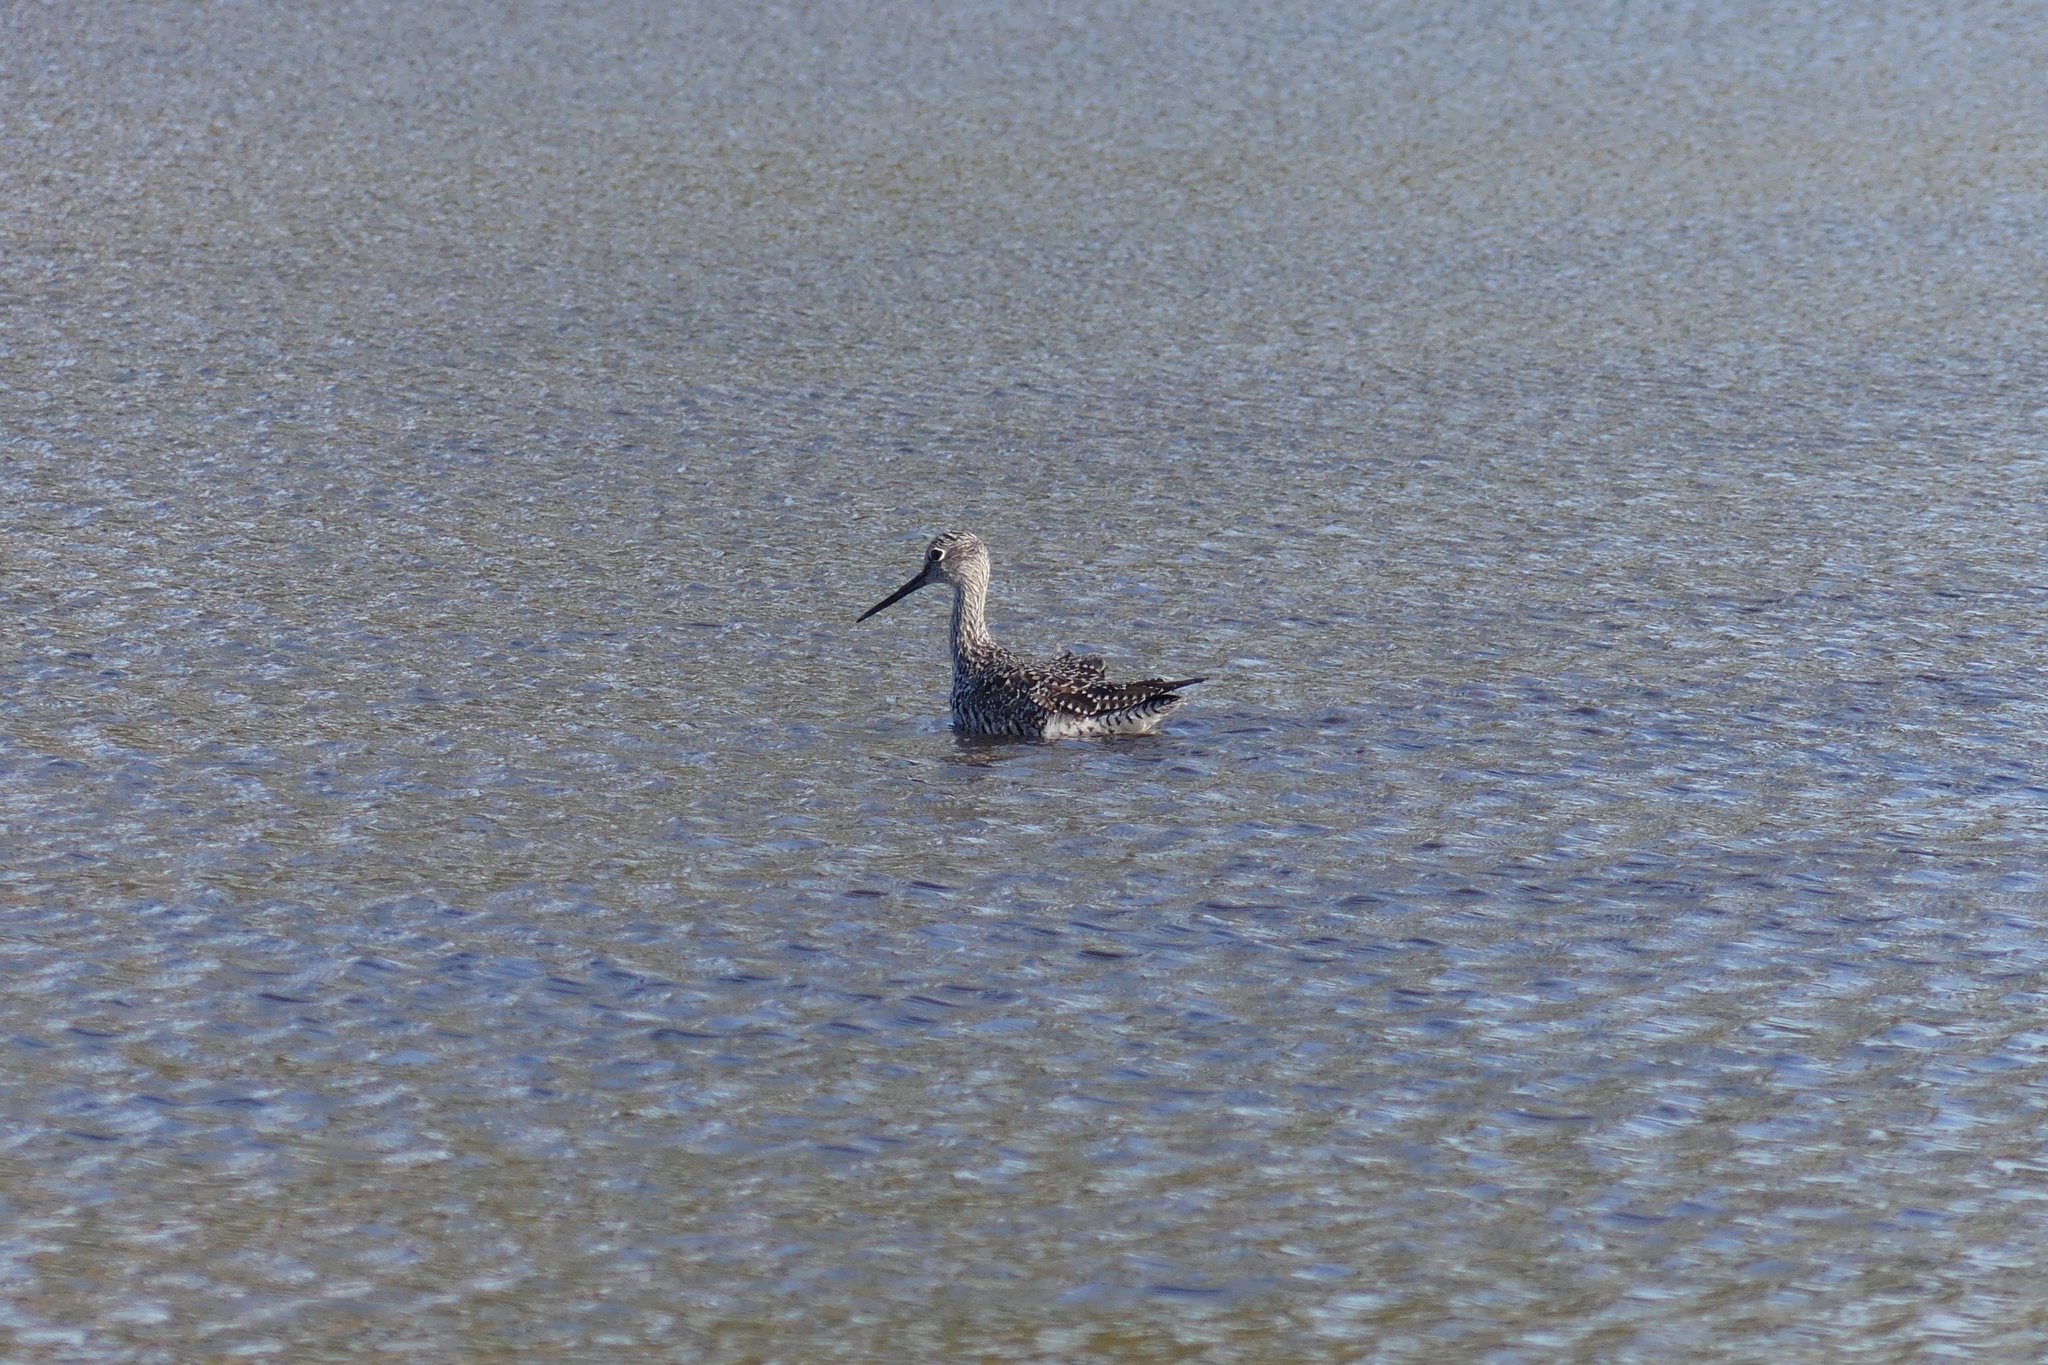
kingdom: Animalia
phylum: Chordata
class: Aves
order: Charadriiformes
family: Scolopacidae
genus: Tringa
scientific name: Tringa melanoleuca
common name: Greater yellowlegs
